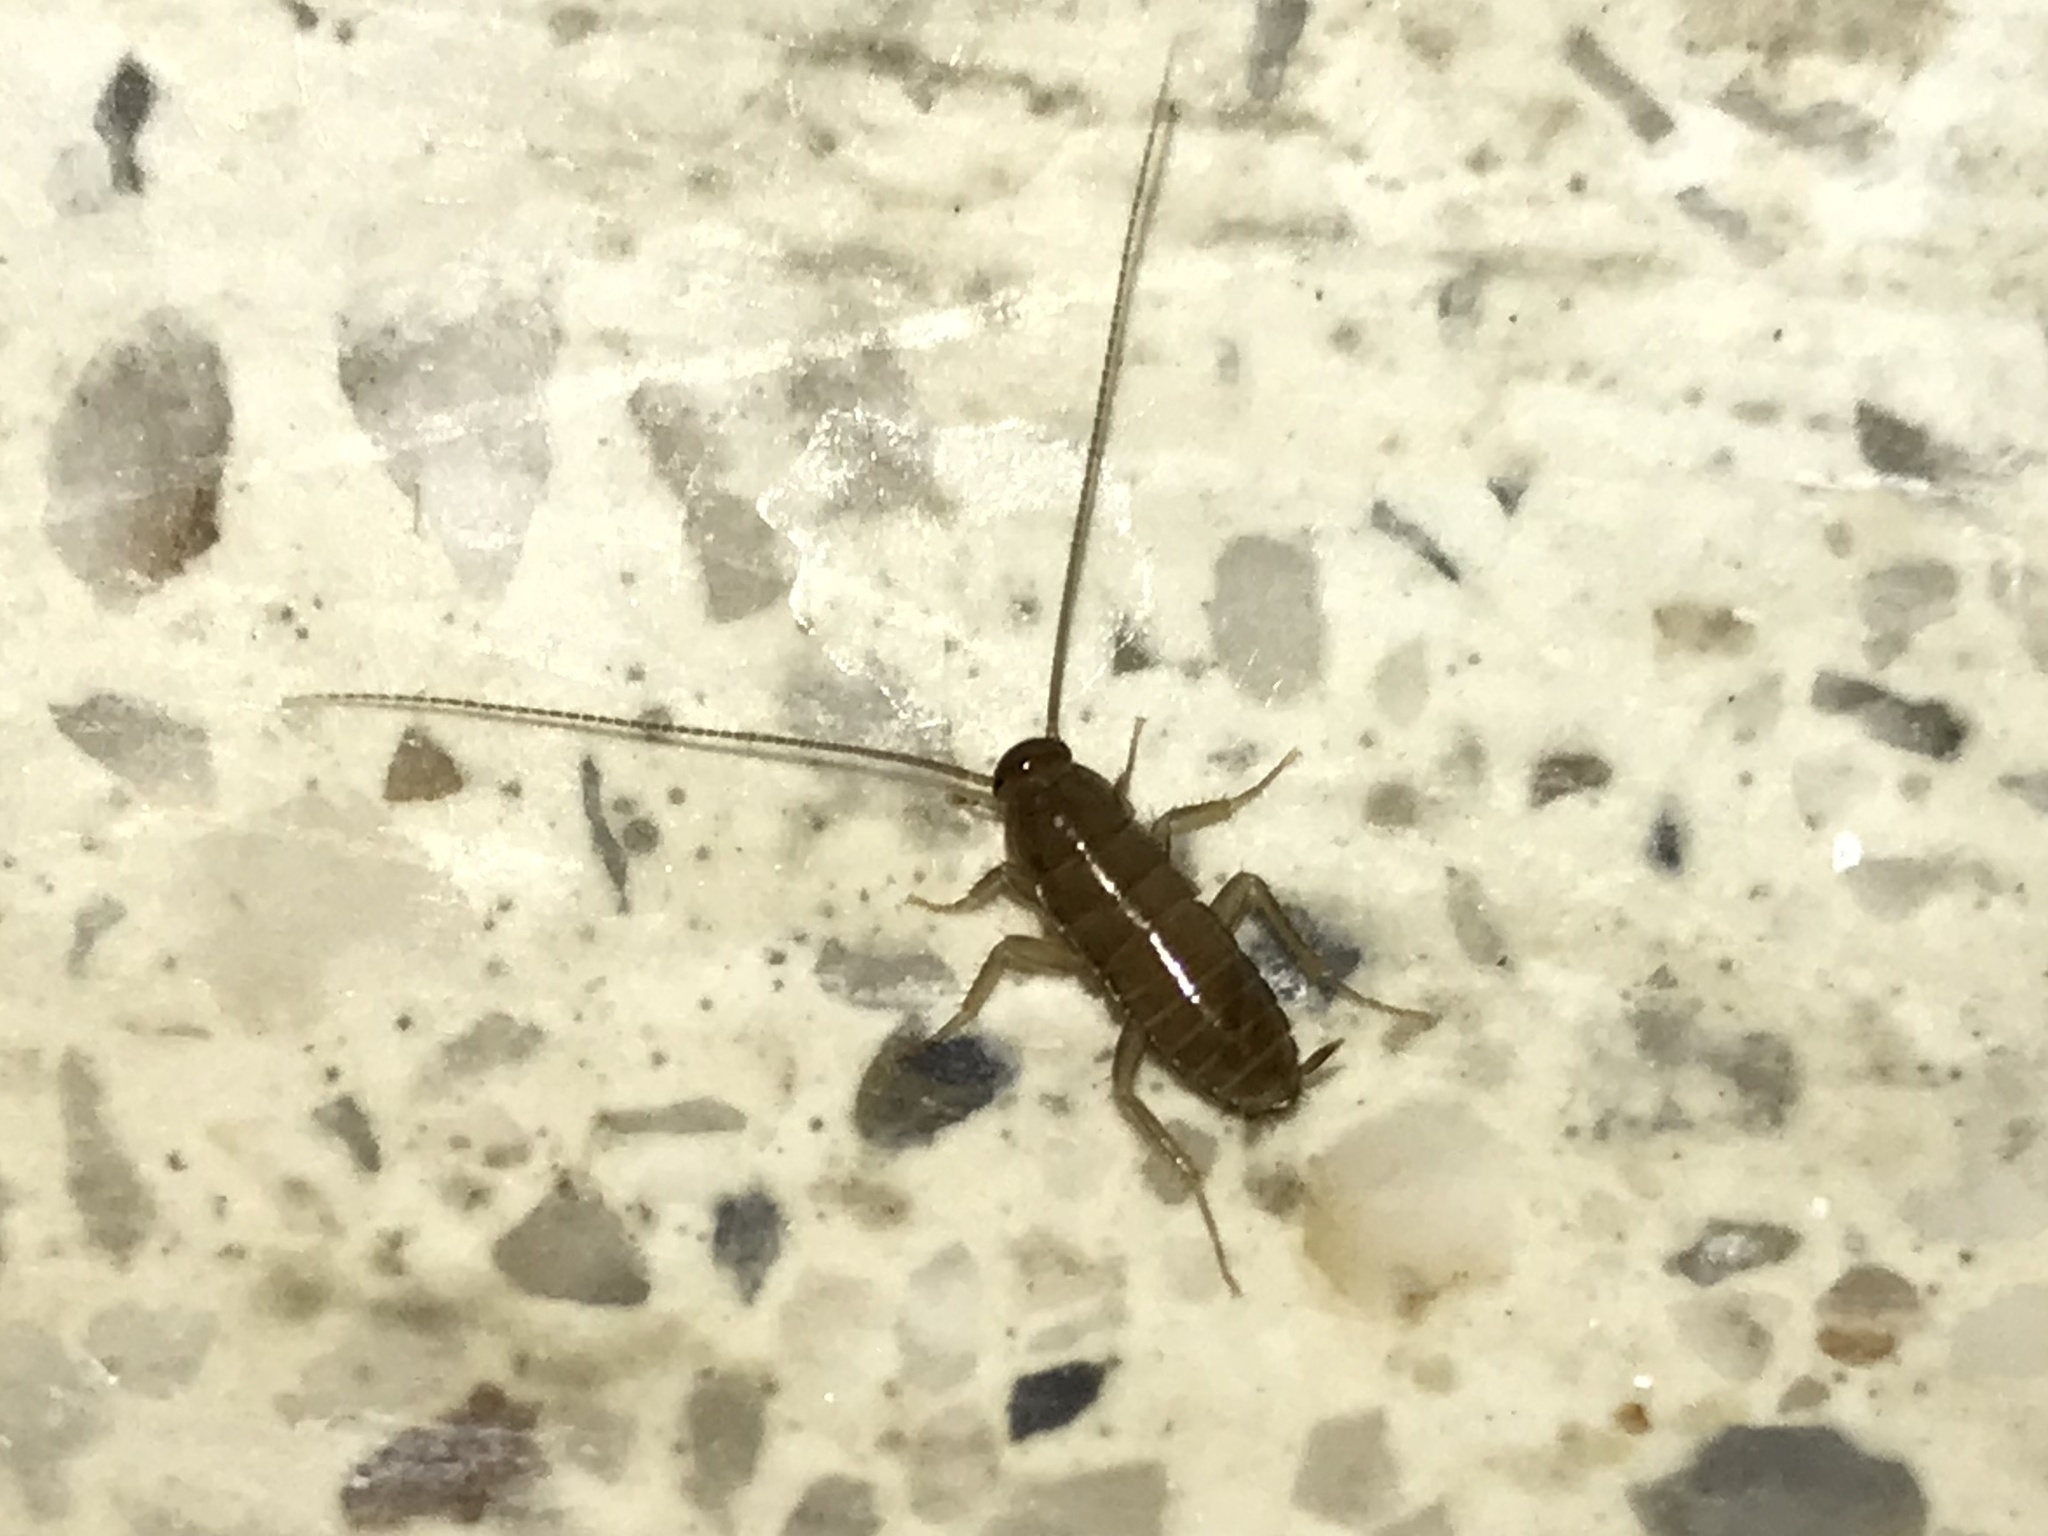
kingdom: Animalia
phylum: Arthropoda
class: Insecta
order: Blattodea
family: Blattidae
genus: Periplaneta
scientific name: Periplaneta americana
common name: American cockroach
